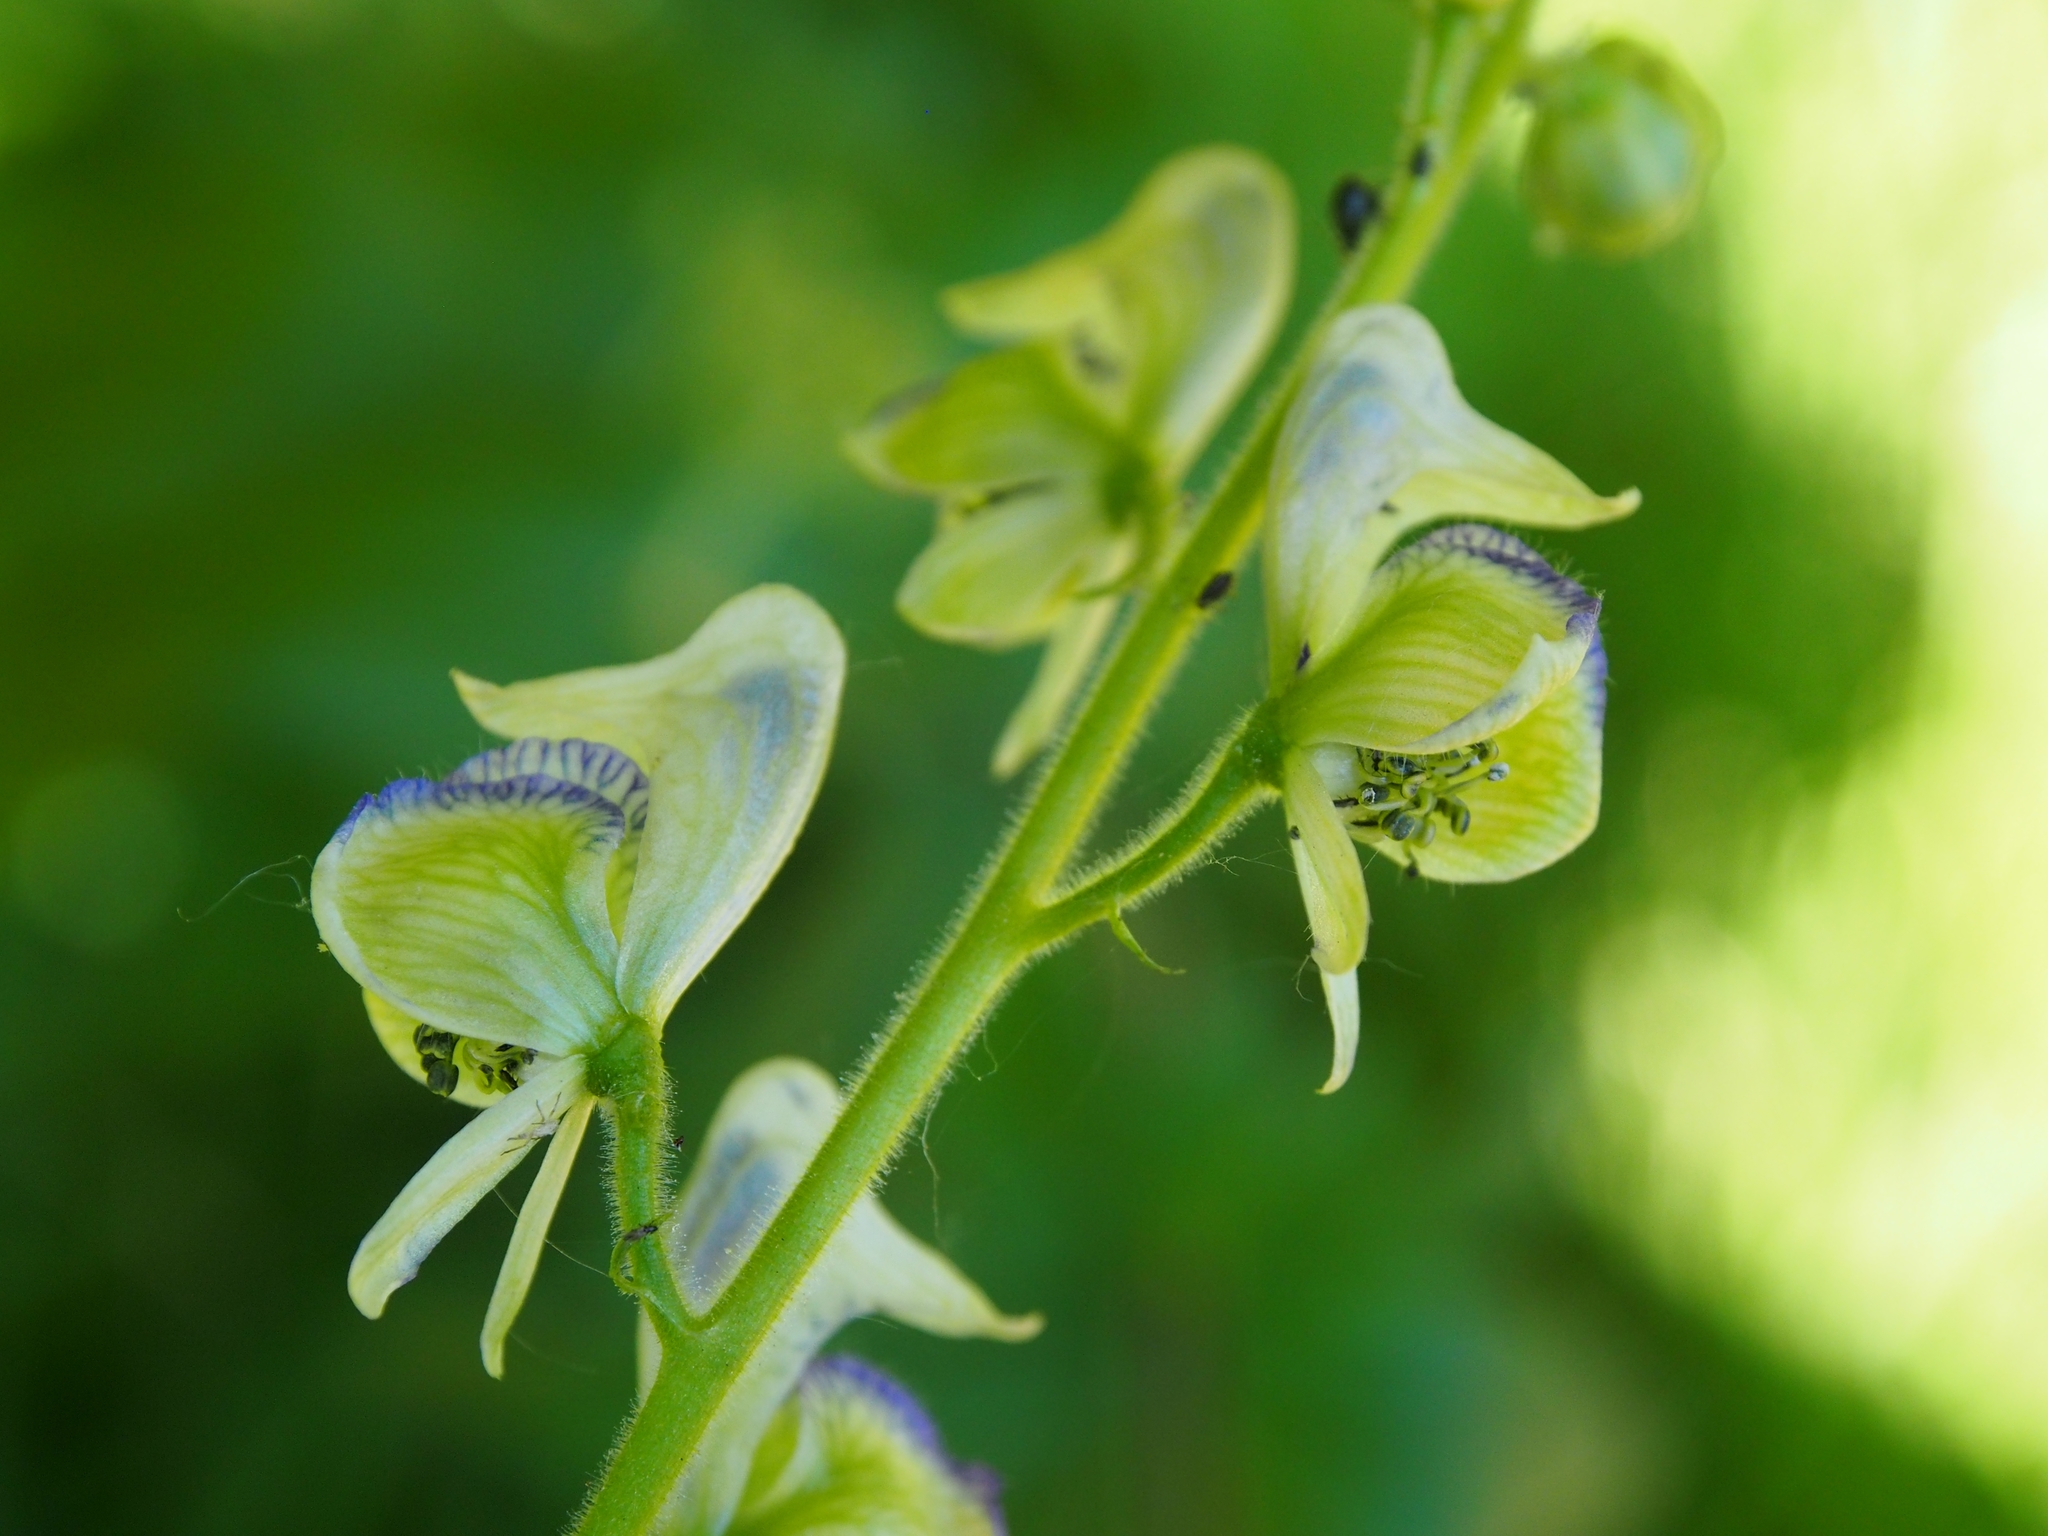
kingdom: Plantae
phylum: Tracheophyta
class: Magnoliopsida
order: Ranunculales
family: Ranunculaceae
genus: Aconitum
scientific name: Aconitum columbianum
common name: Columbia aconite
